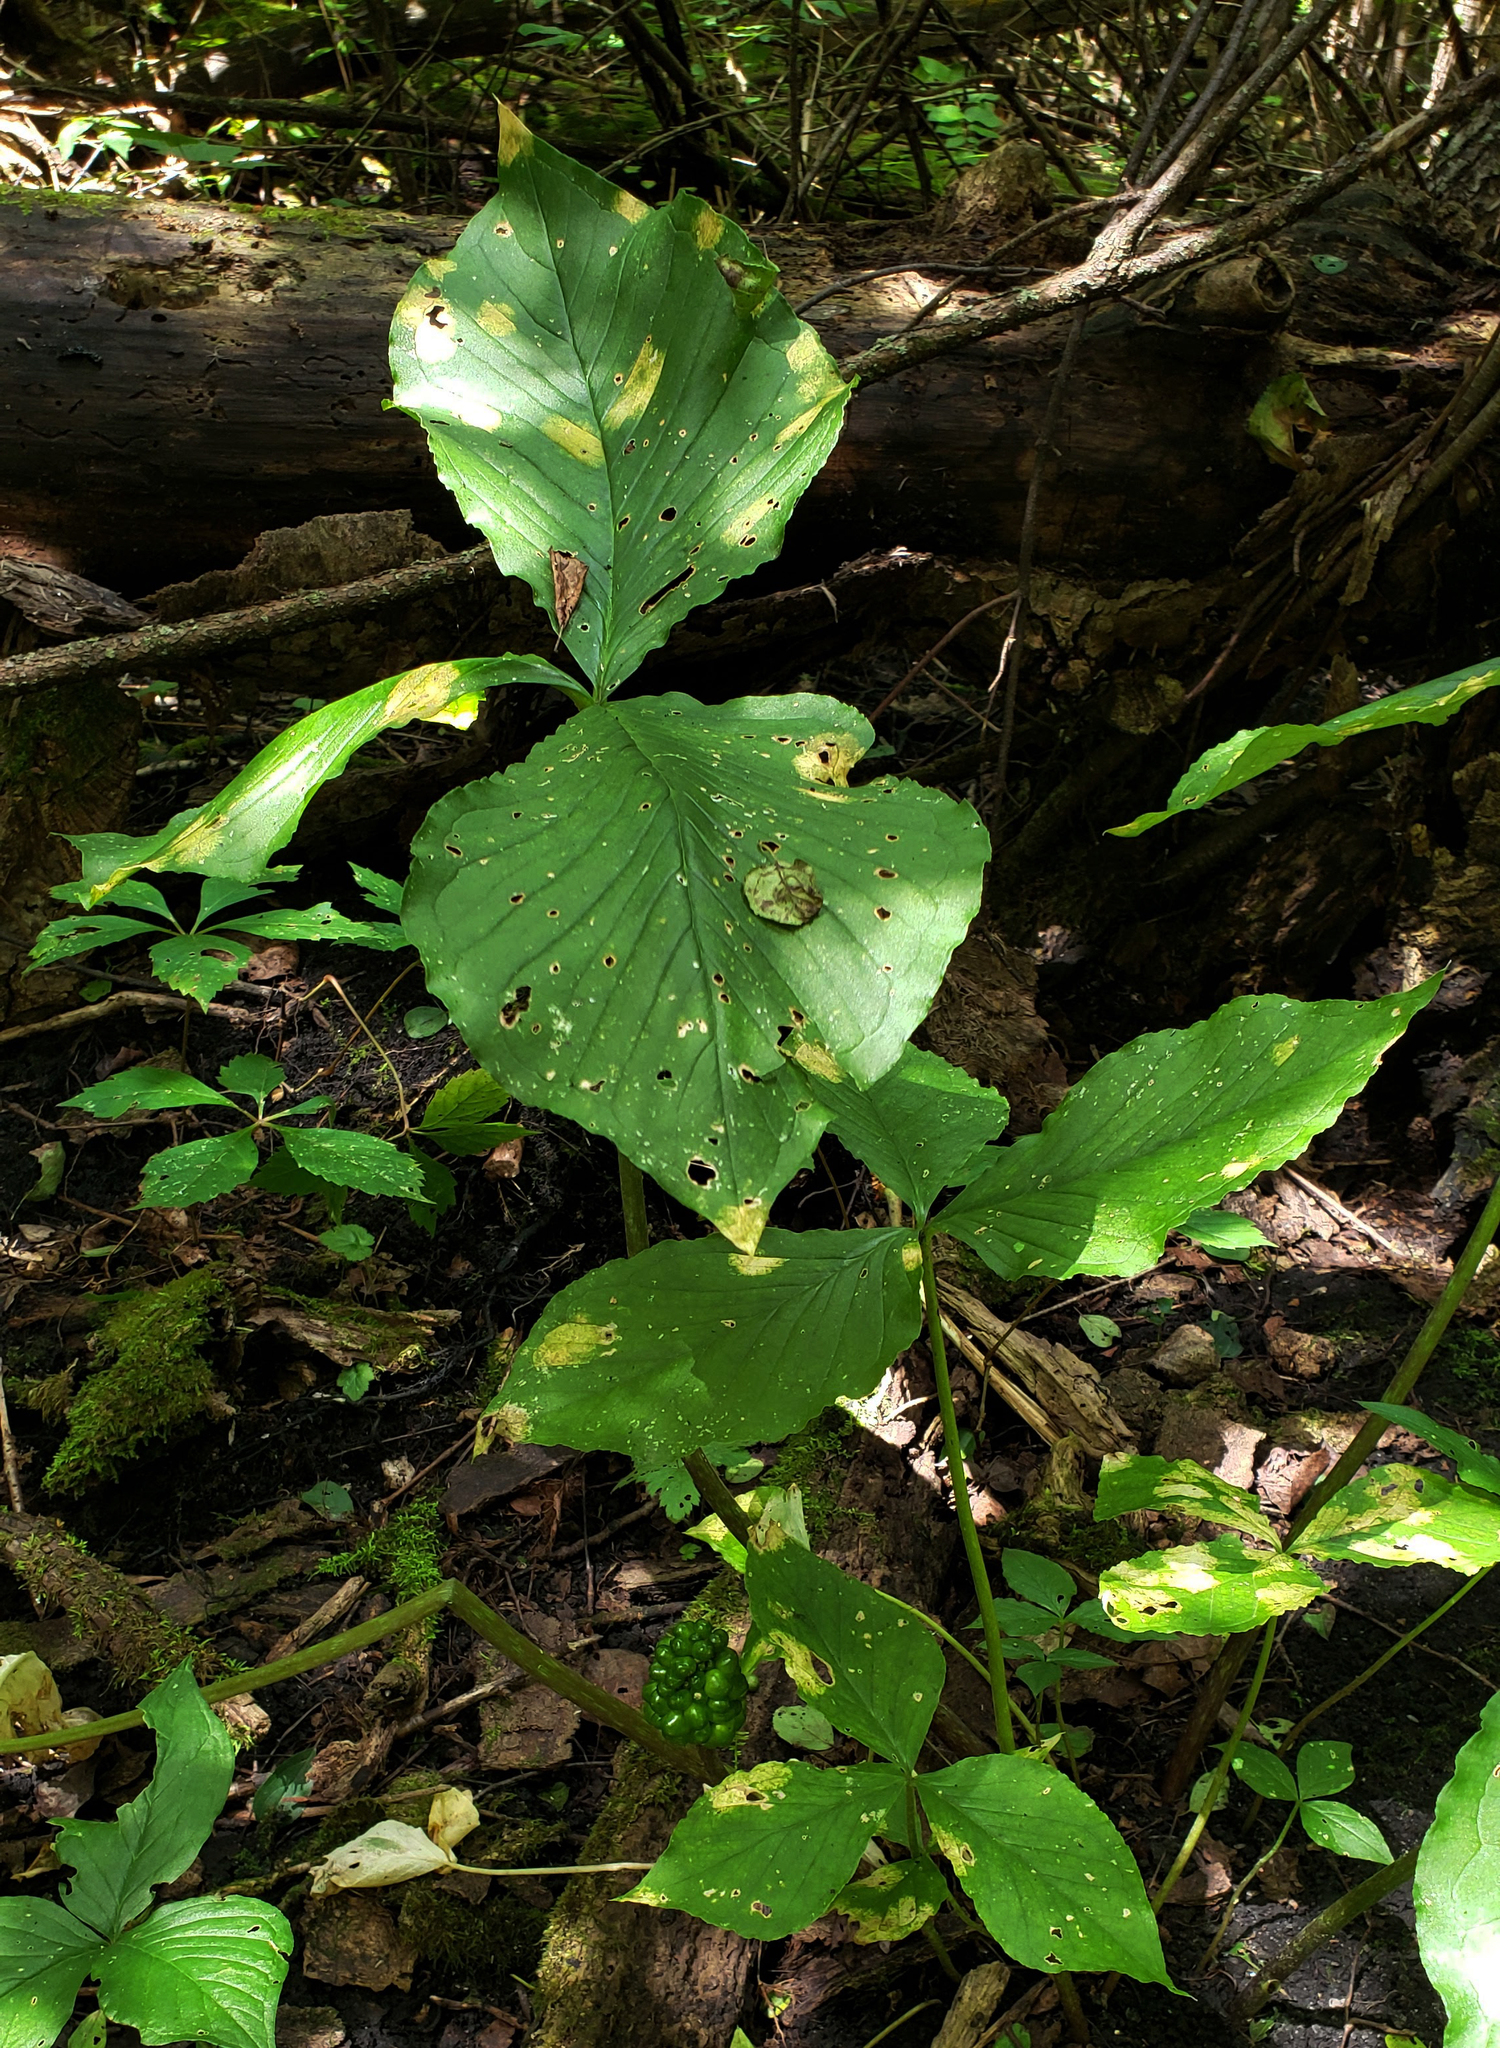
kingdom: Plantae
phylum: Tracheophyta
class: Liliopsida
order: Alismatales
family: Araceae
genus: Arisaema
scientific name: Arisaema triphyllum
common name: Jack-in-the-pulpit
